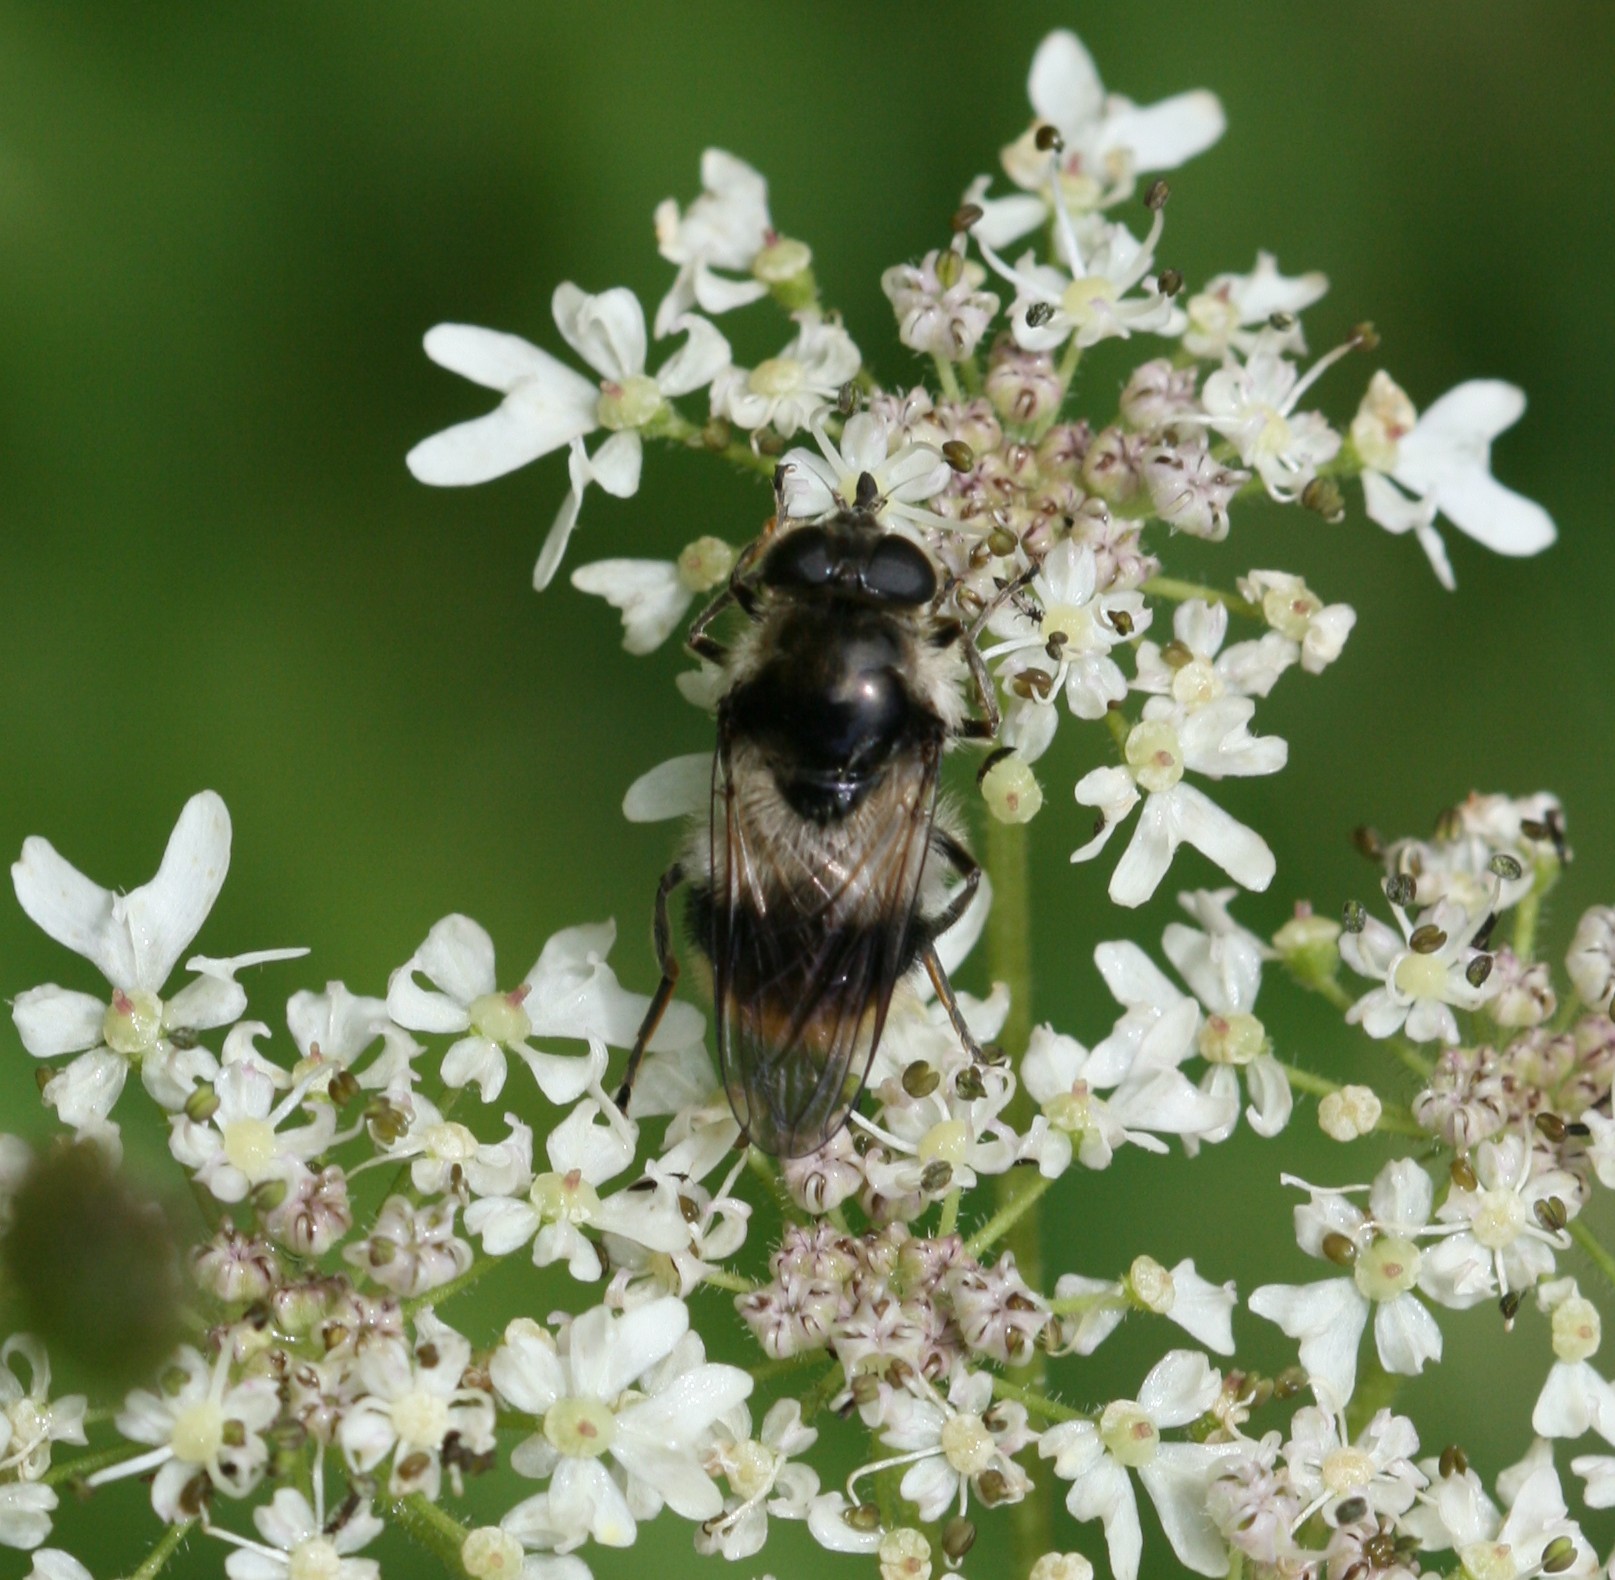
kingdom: Animalia
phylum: Arthropoda
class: Insecta
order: Diptera
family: Syrphidae
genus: Cheilosia
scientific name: Cheilosia illustrata
